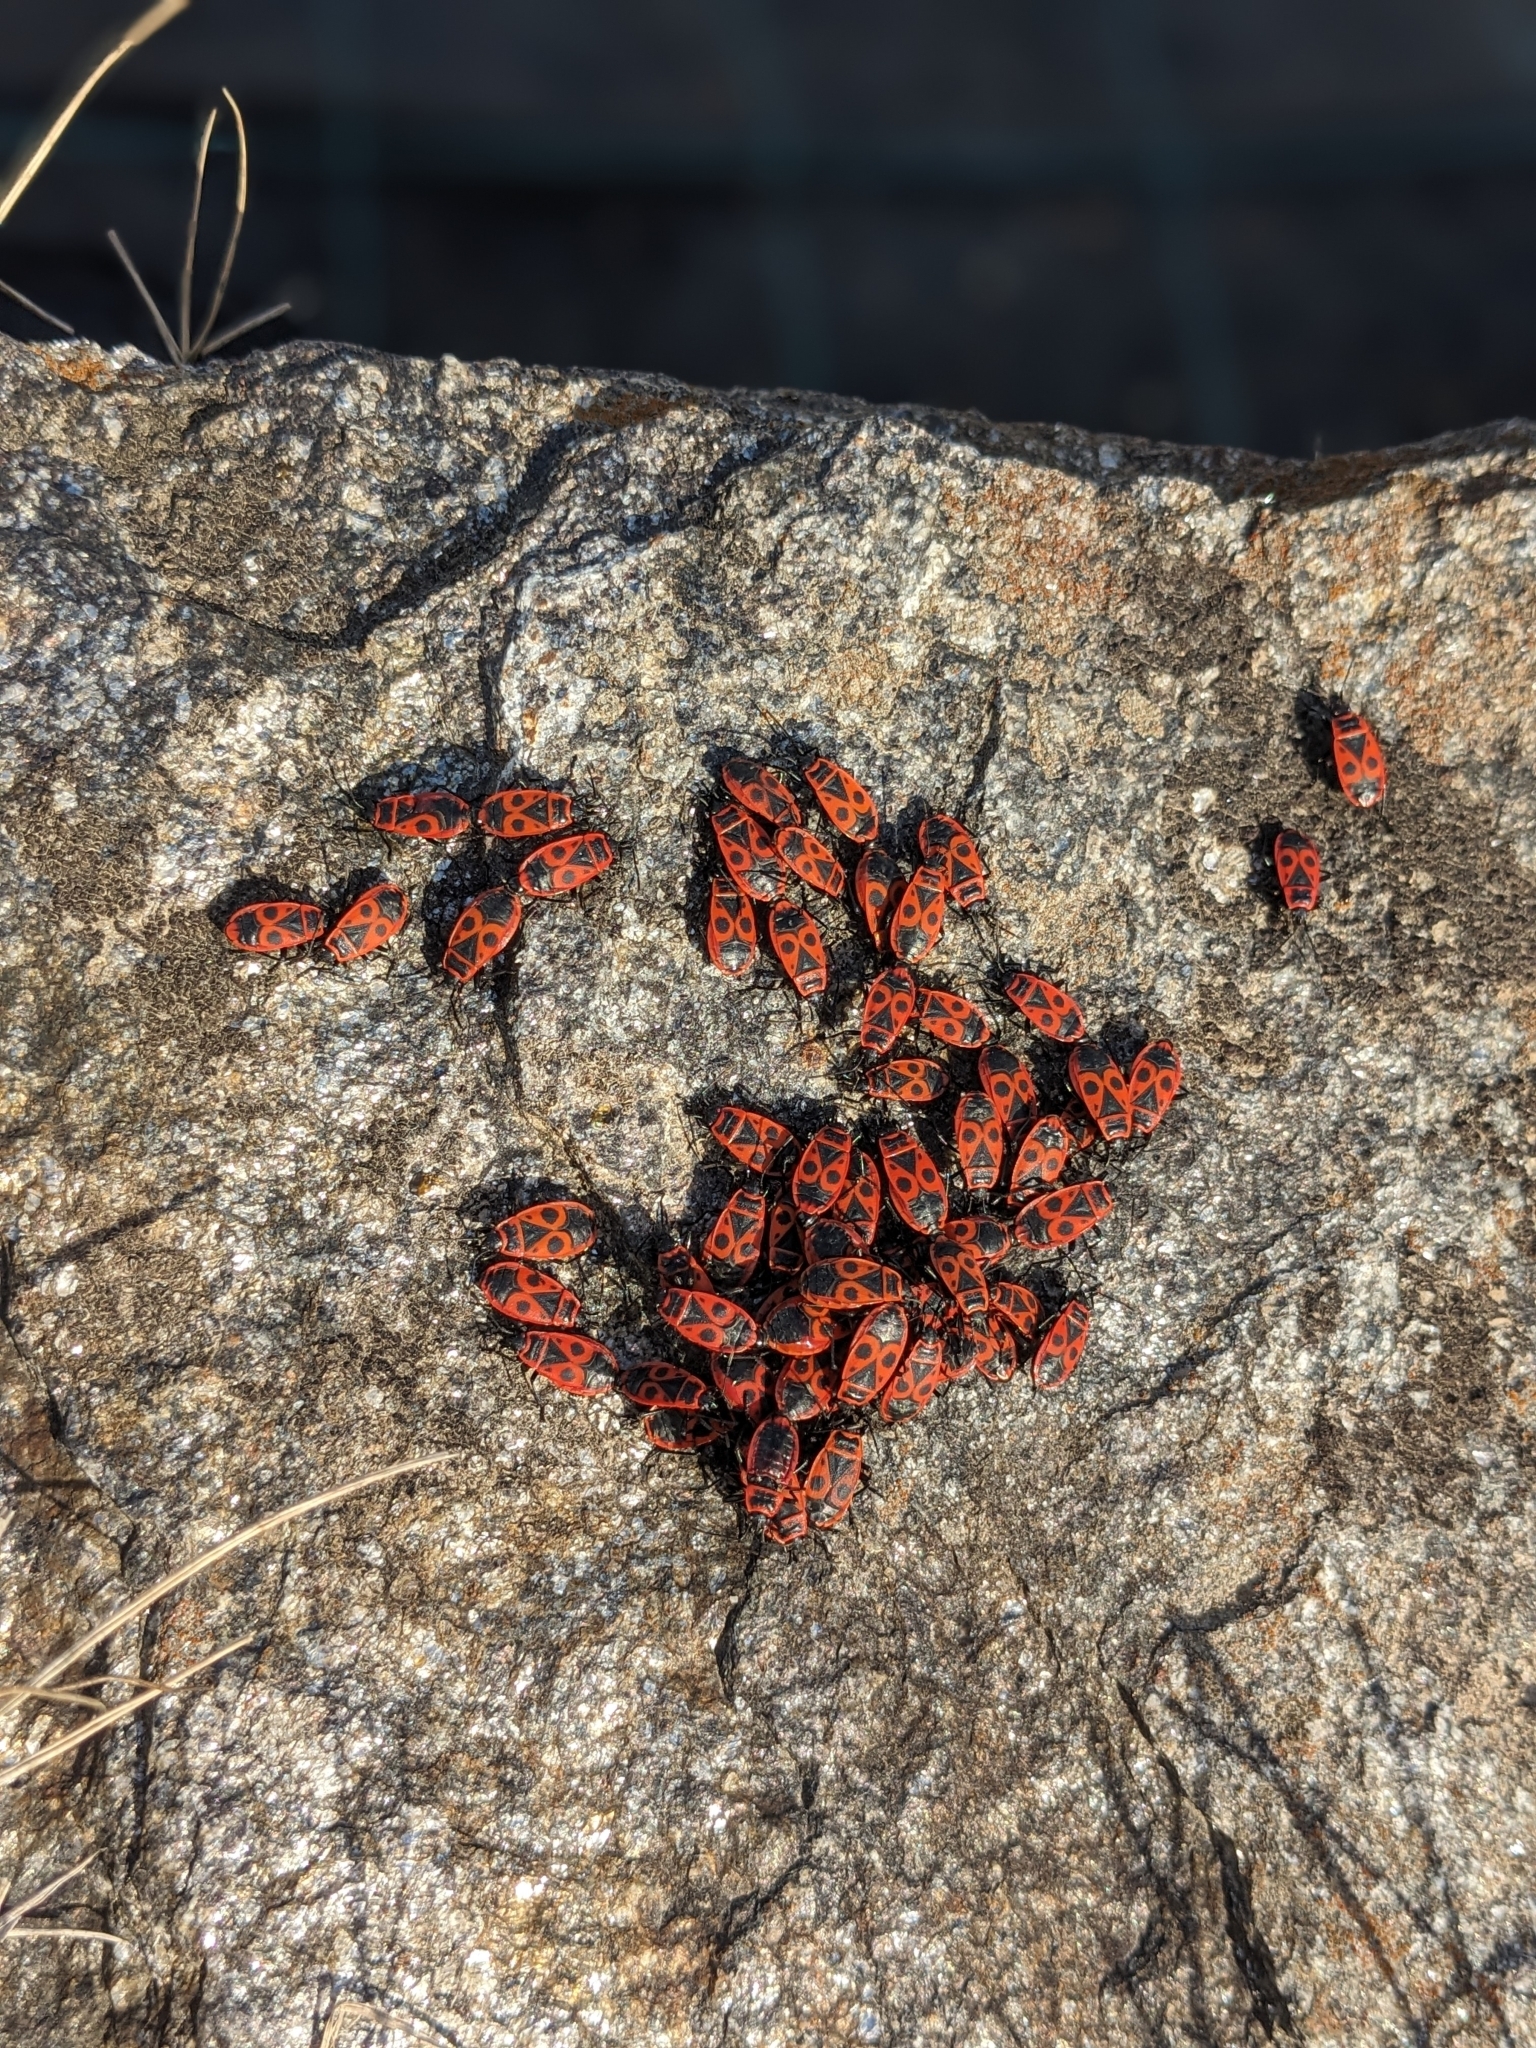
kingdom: Animalia
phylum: Arthropoda
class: Insecta
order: Hemiptera
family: Pyrrhocoridae
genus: Pyrrhocoris
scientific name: Pyrrhocoris apterus
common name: Firebug
